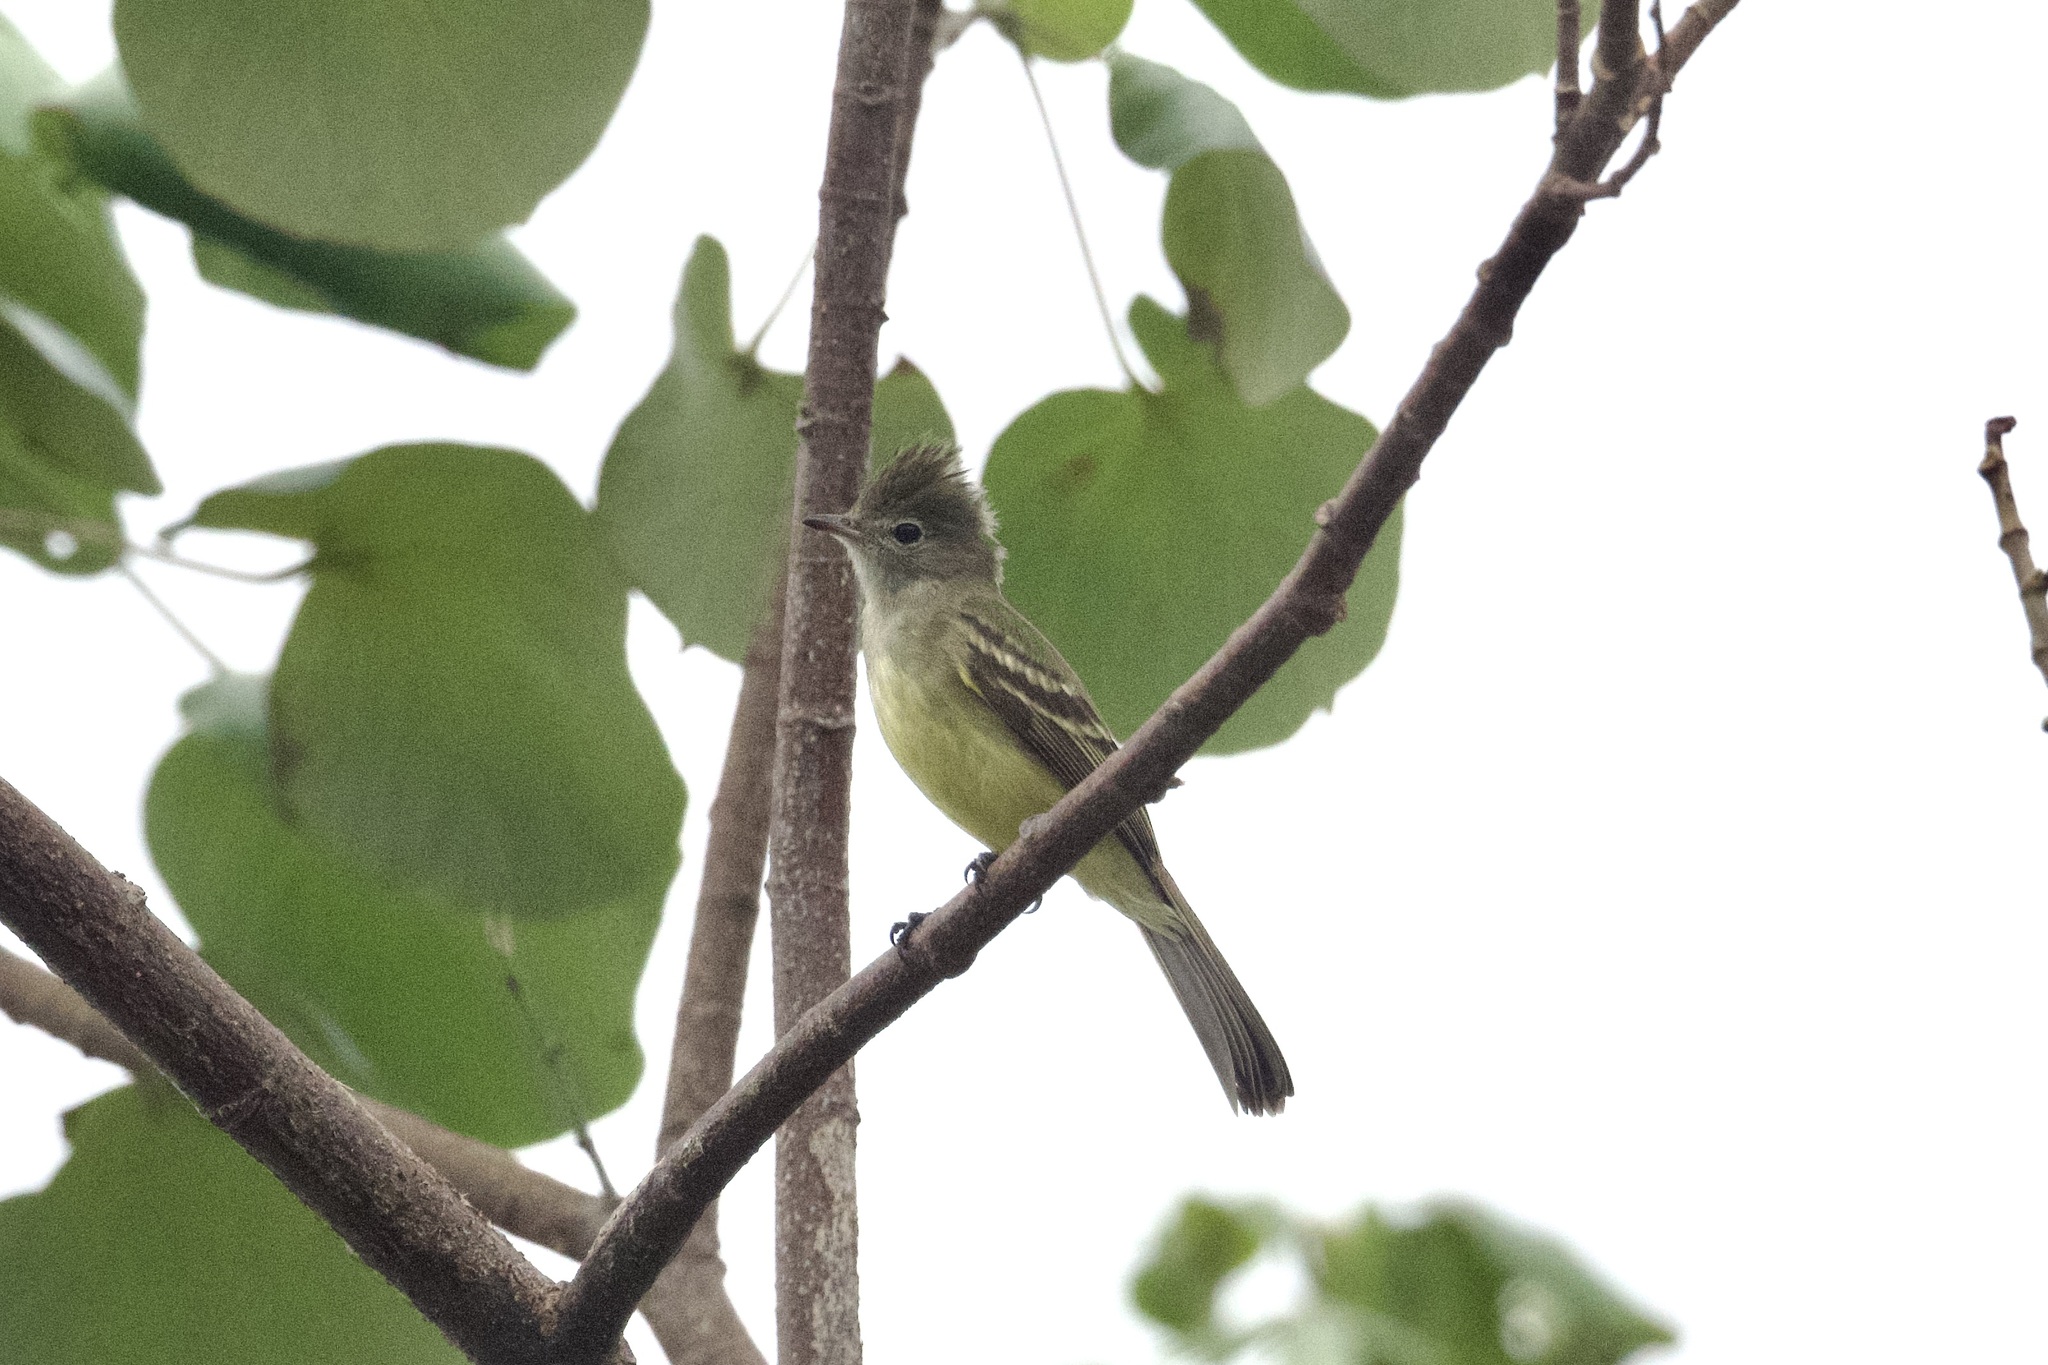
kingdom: Animalia
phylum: Chordata
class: Aves
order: Passeriformes
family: Tyrannidae
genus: Elaenia
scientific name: Elaenia flavogaster
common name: Yellow-bellied elaenia
